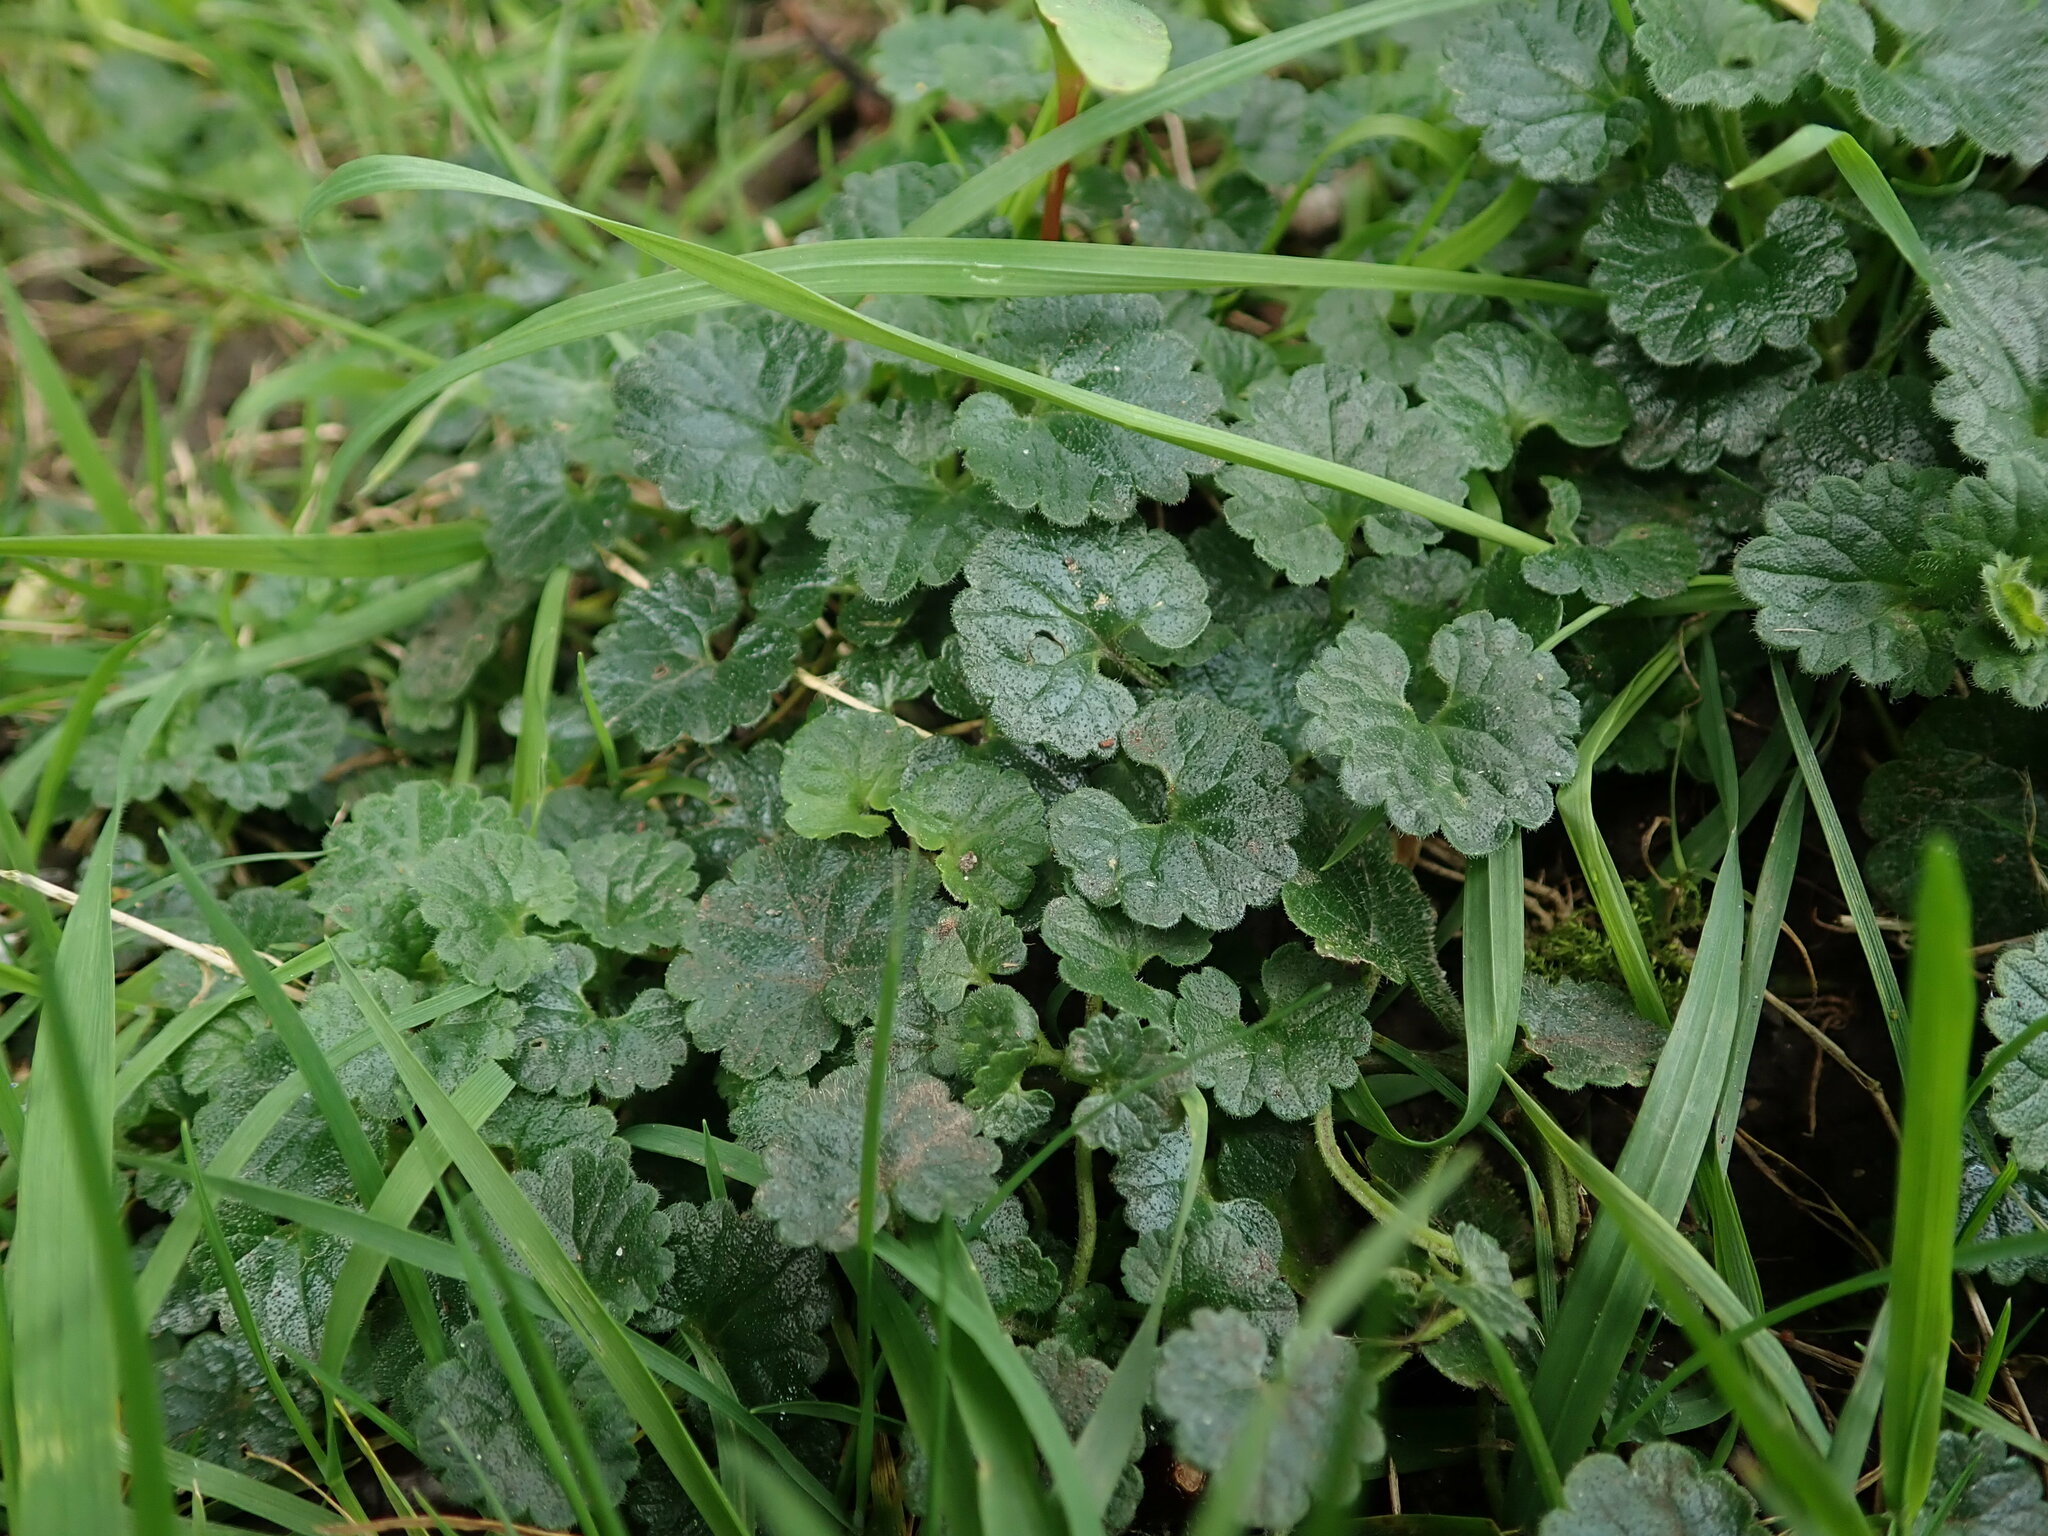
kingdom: Plantae
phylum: Tracheophyta
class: Magnoliopsida
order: Lamiales
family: Lamiaceae
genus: Glechoma
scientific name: Glechoma hederacea
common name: Ground ivy
